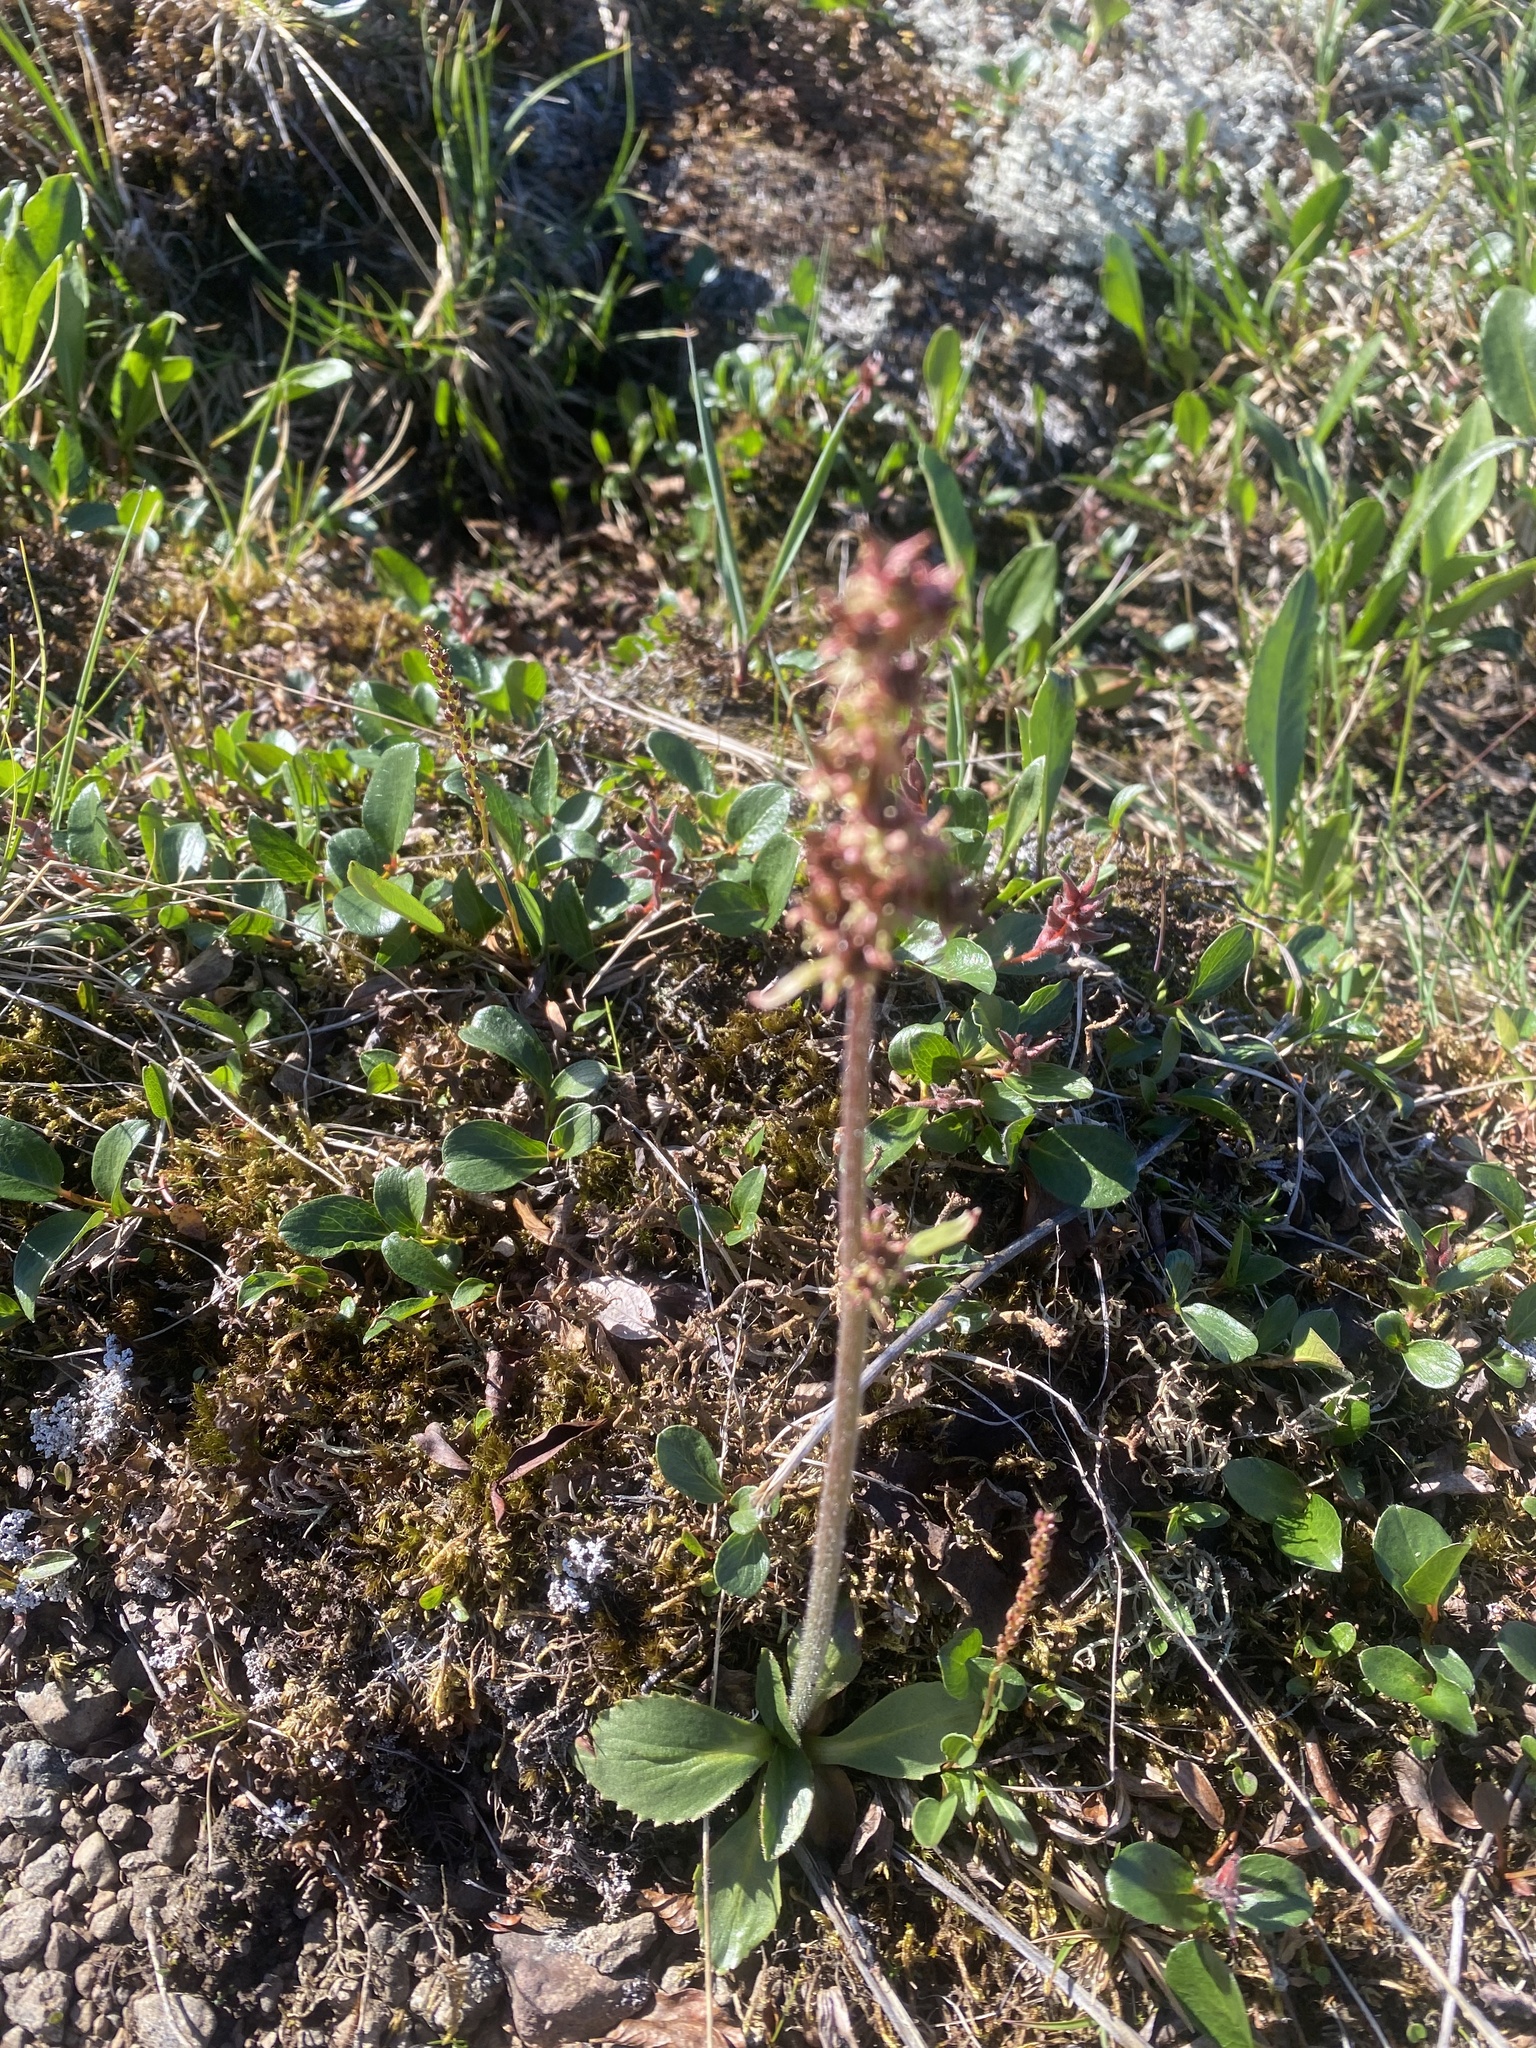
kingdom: Plantae
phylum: Tracheophyta
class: Magnoliopsida
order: Saxifragales
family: Saxifragaceae
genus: Micranthes
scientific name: Micranthes hieraciifolia
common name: Hawkweed-leaved saxifrage
